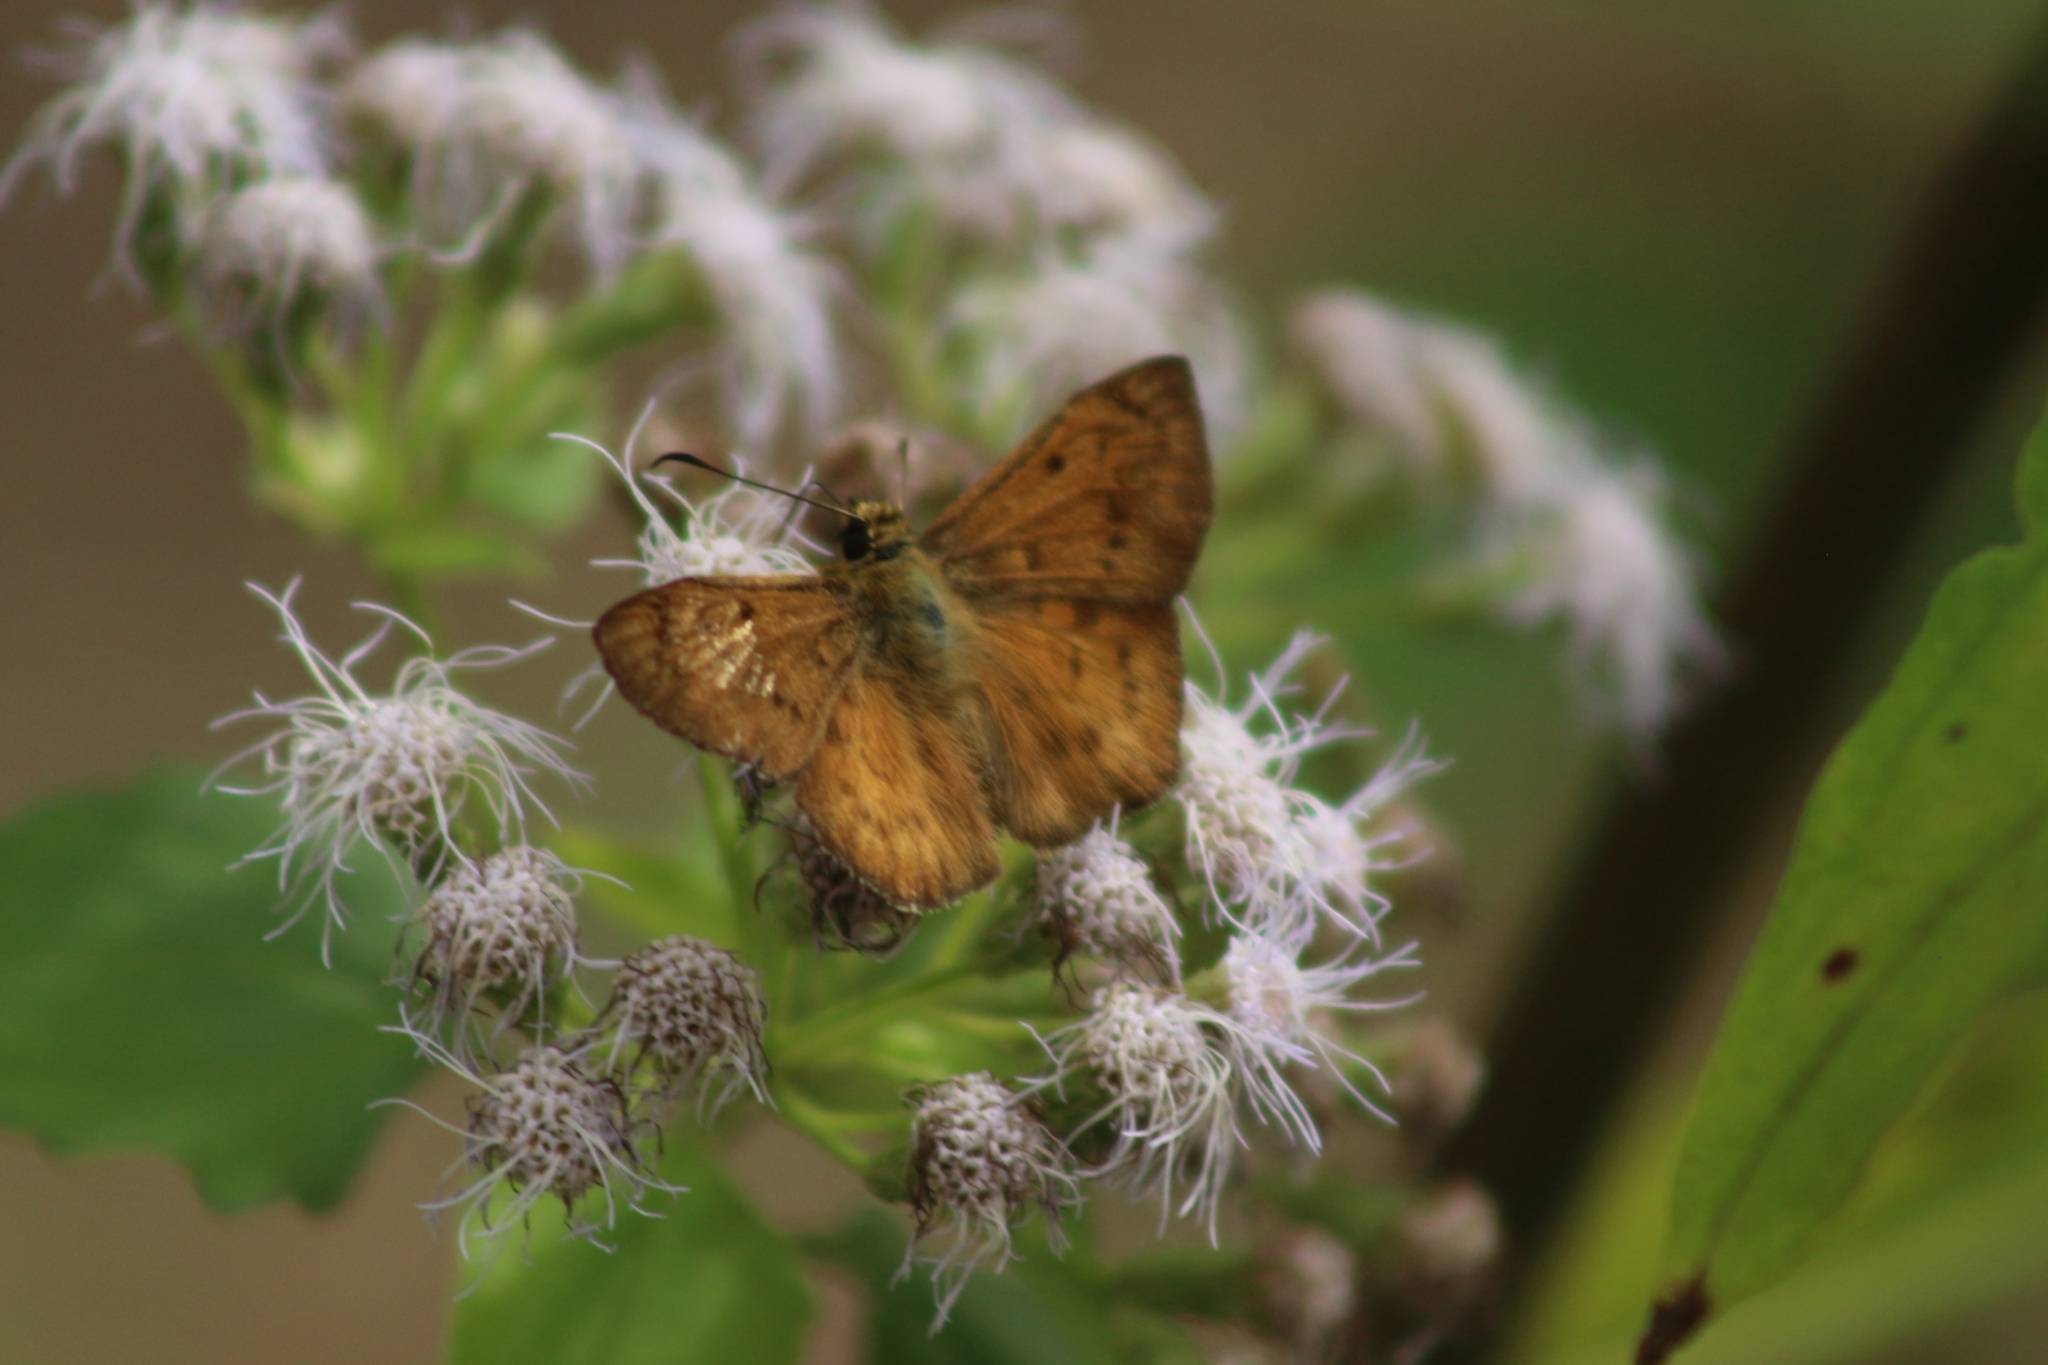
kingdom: Animalia
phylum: Arthropoda
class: Insecta
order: Lepidoptera
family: Hesperiidae
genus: Eagris
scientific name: Eagris sabadius
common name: Orange flat
